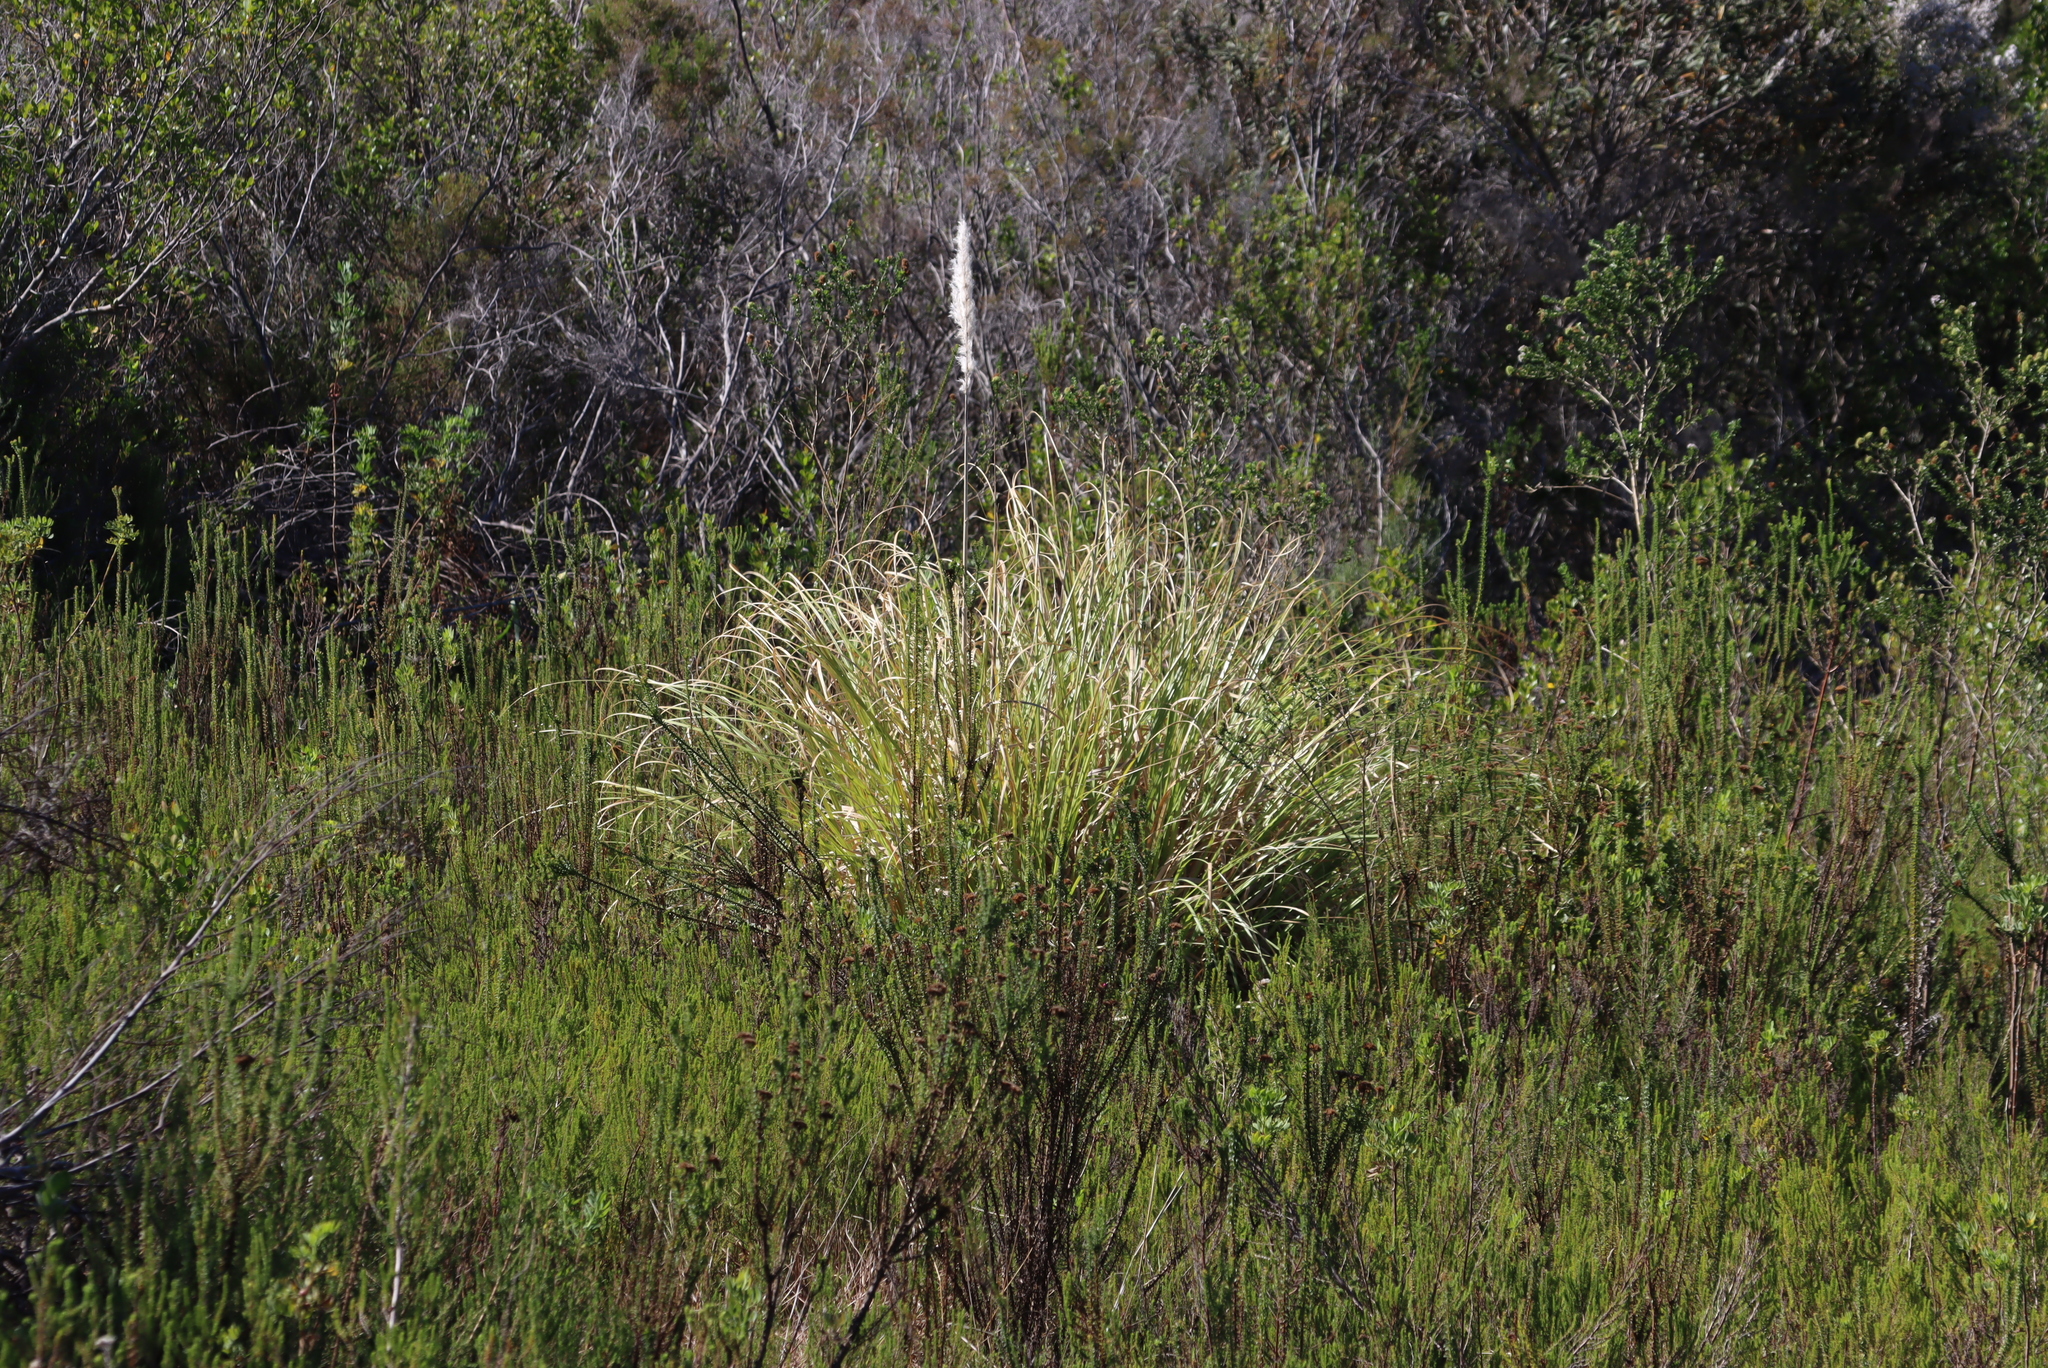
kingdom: Plantae
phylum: Tracheophyta
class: Liliopsida
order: Poales
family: Poaceae
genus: Cortaderia
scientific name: Cortaderia selloana
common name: Uruguayan pampas grass
